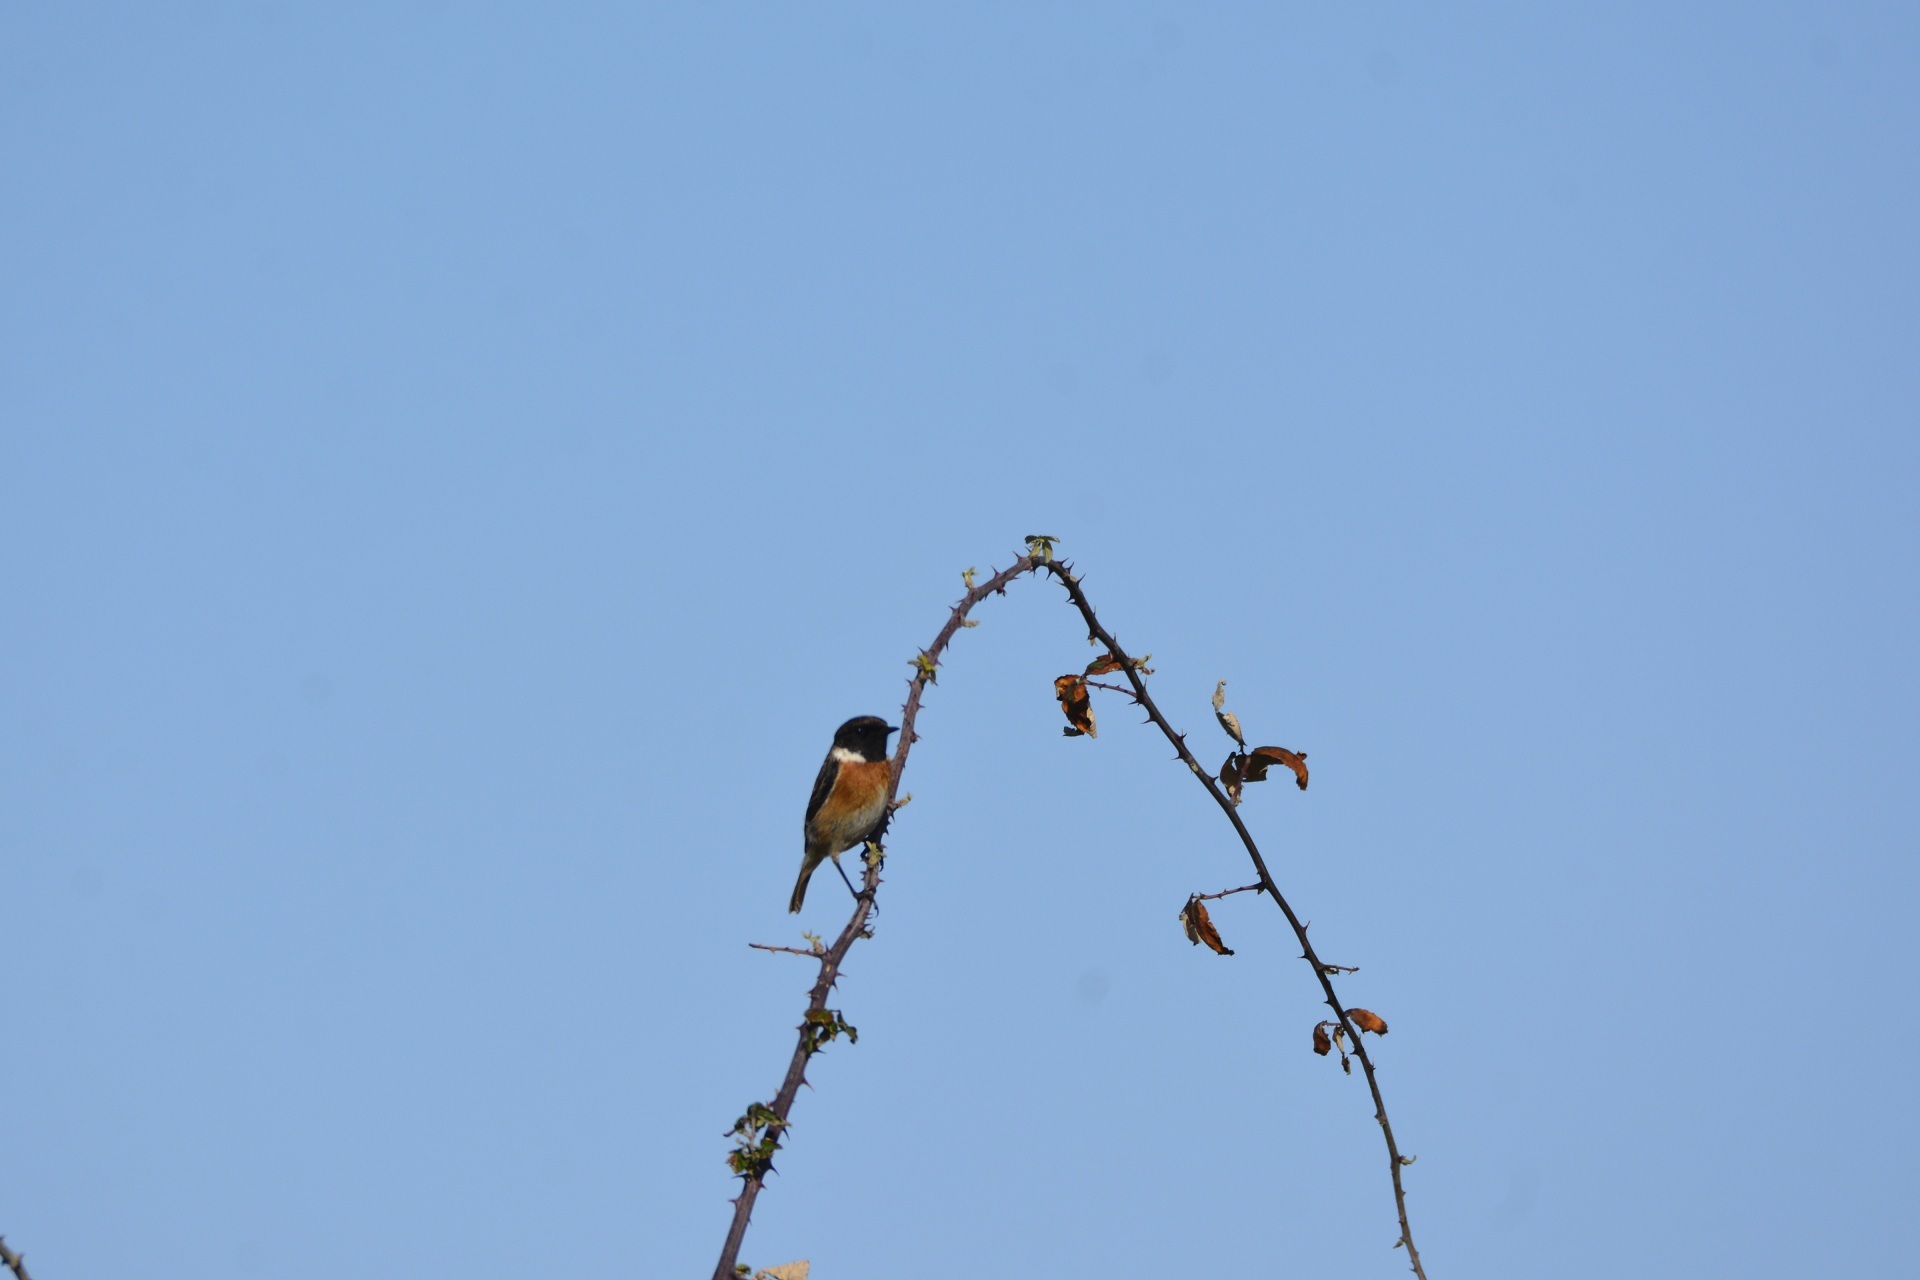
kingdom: Animalia
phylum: Chordata
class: Aves
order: Passeriformes
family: Muscicapidae
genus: Saxicola
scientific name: Saxicola rubicola
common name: European stonechat
